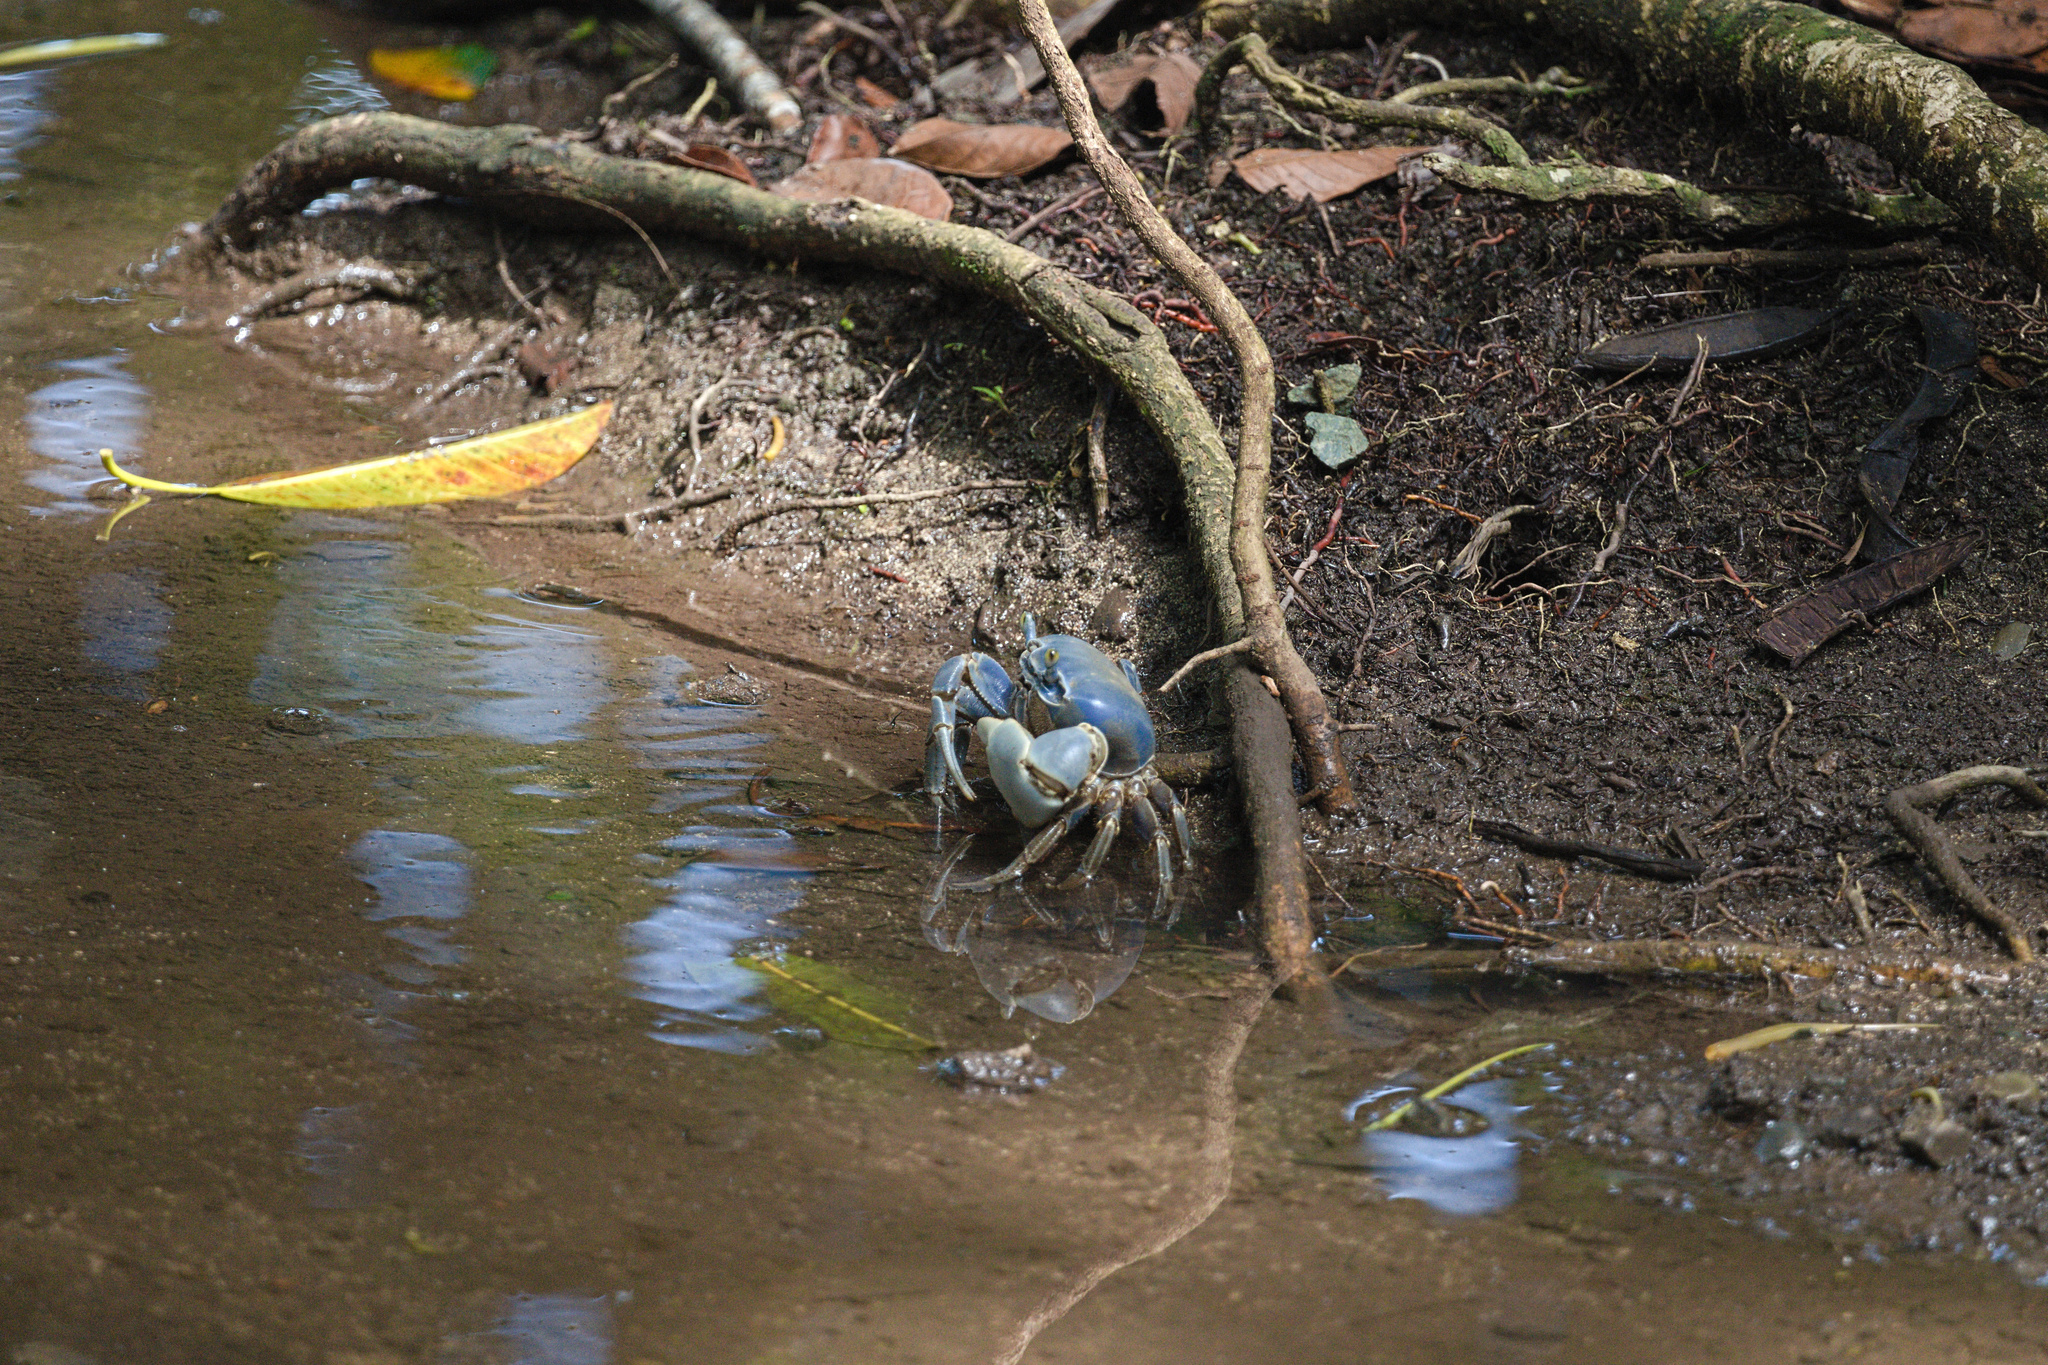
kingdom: Animalia
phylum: Arthropoda
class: Malacostraca
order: Decapoda
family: Gecarcinidae
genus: Cardisoma
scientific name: Cardisoma guanhumi
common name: Great land crab
